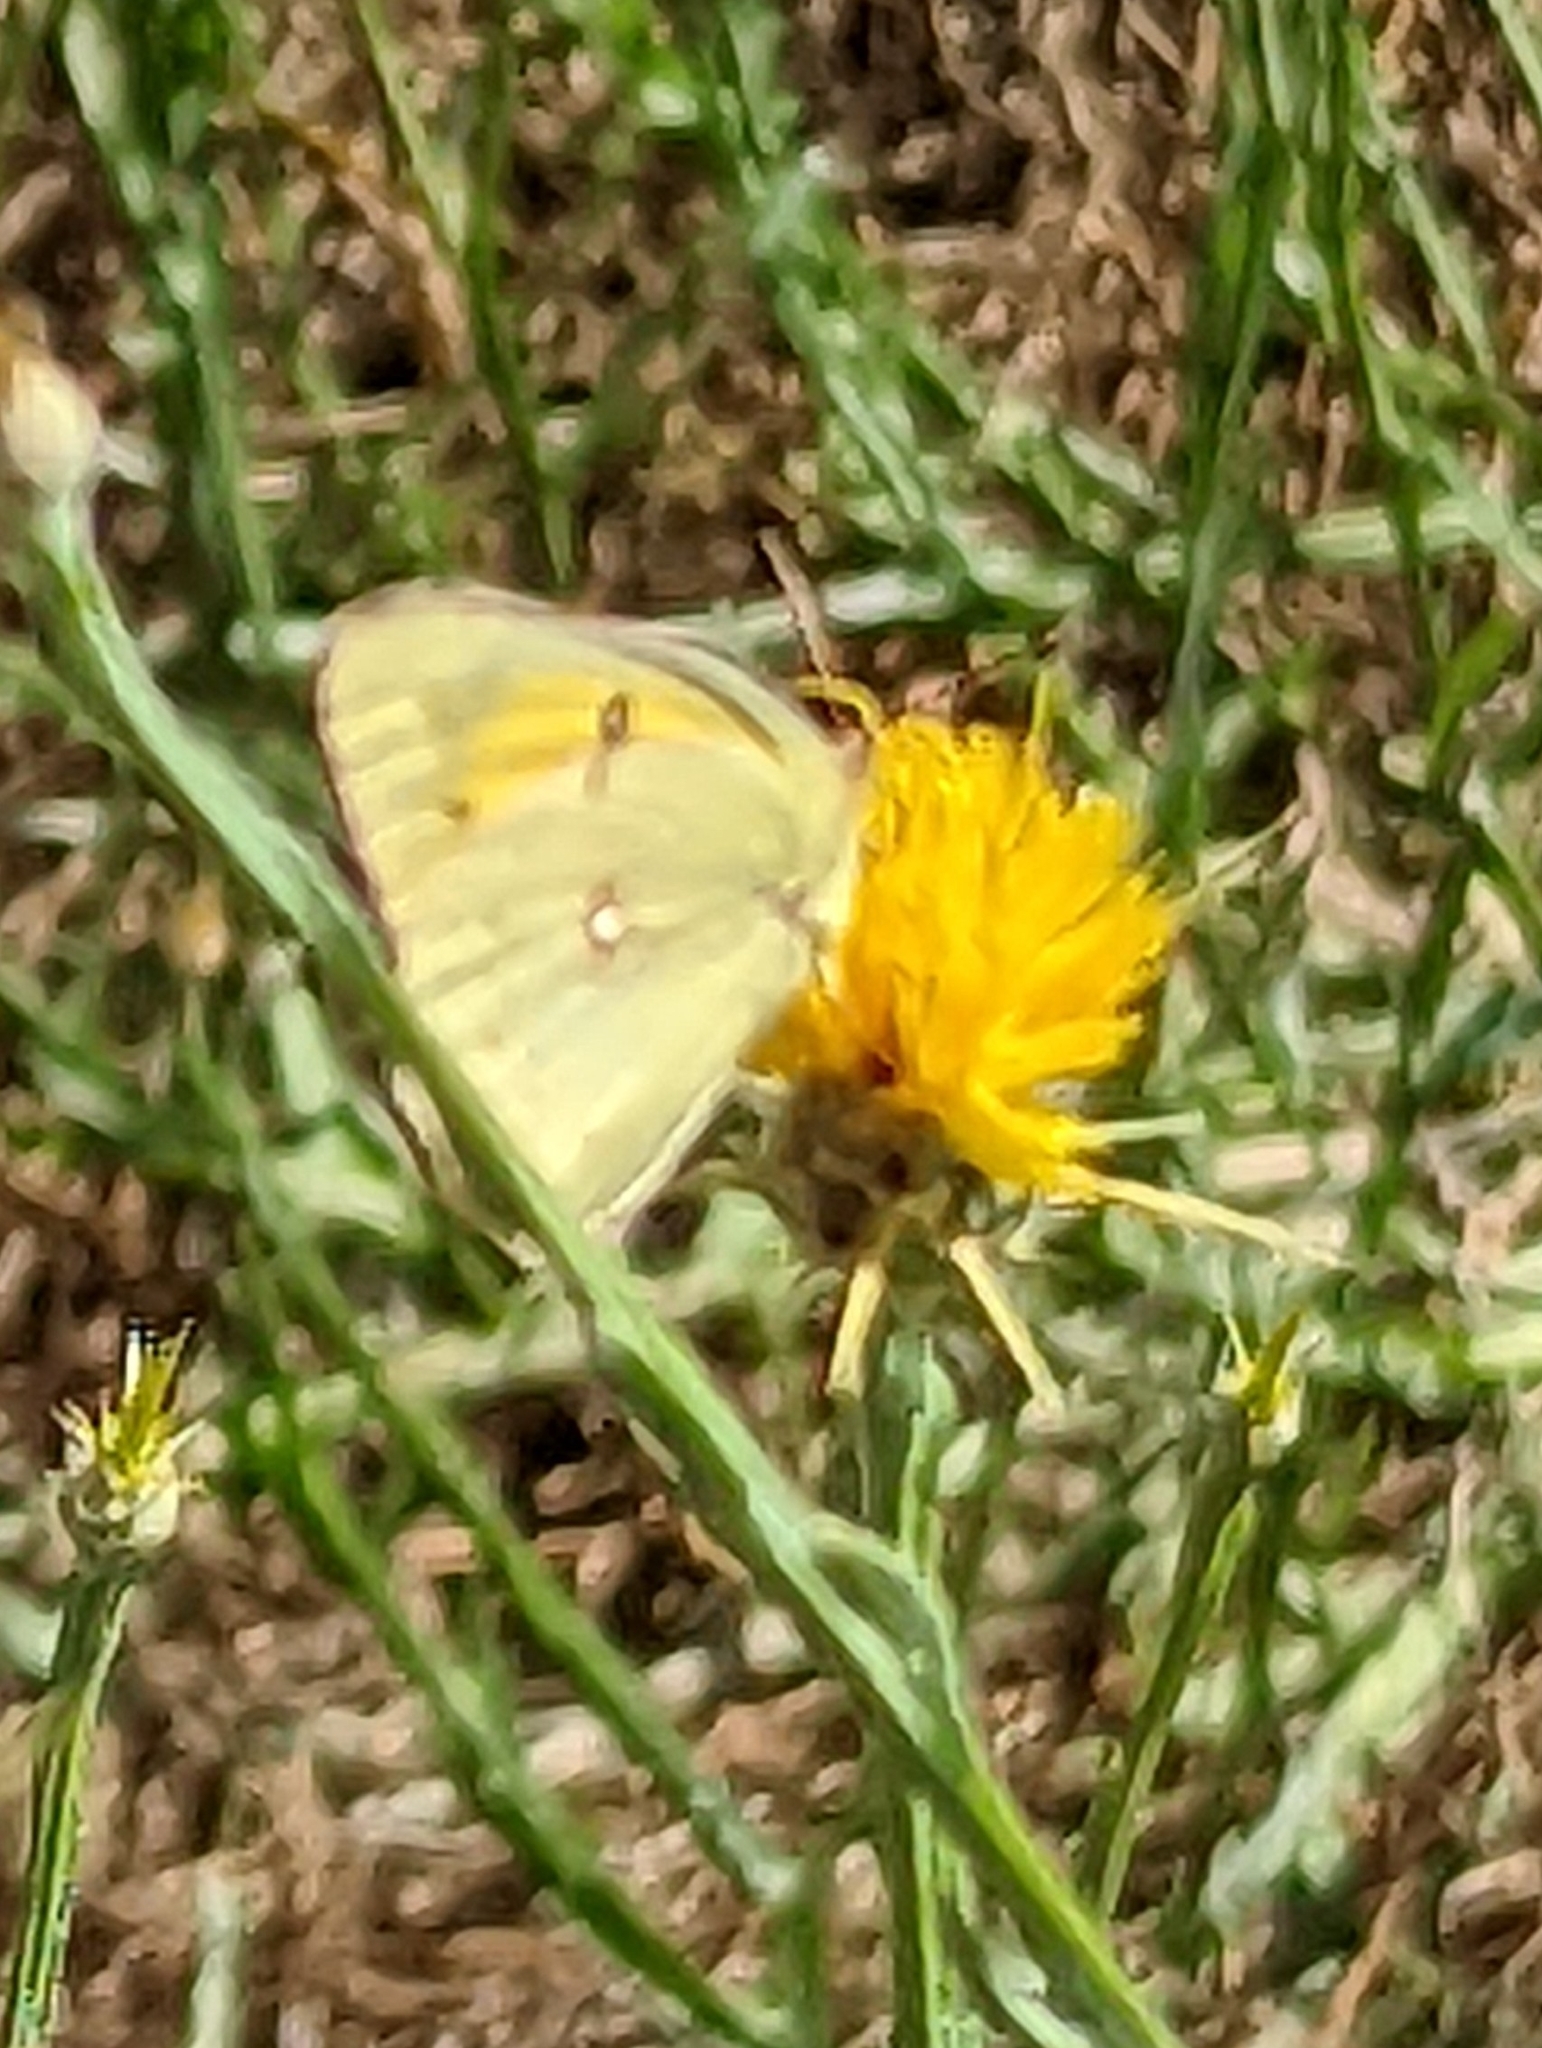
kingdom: Animalia
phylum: Arthropoda
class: Insecta
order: Lepidoptera
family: Pieridae
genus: Colias
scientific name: Colias eurytheme
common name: Alfalfa butterfly
